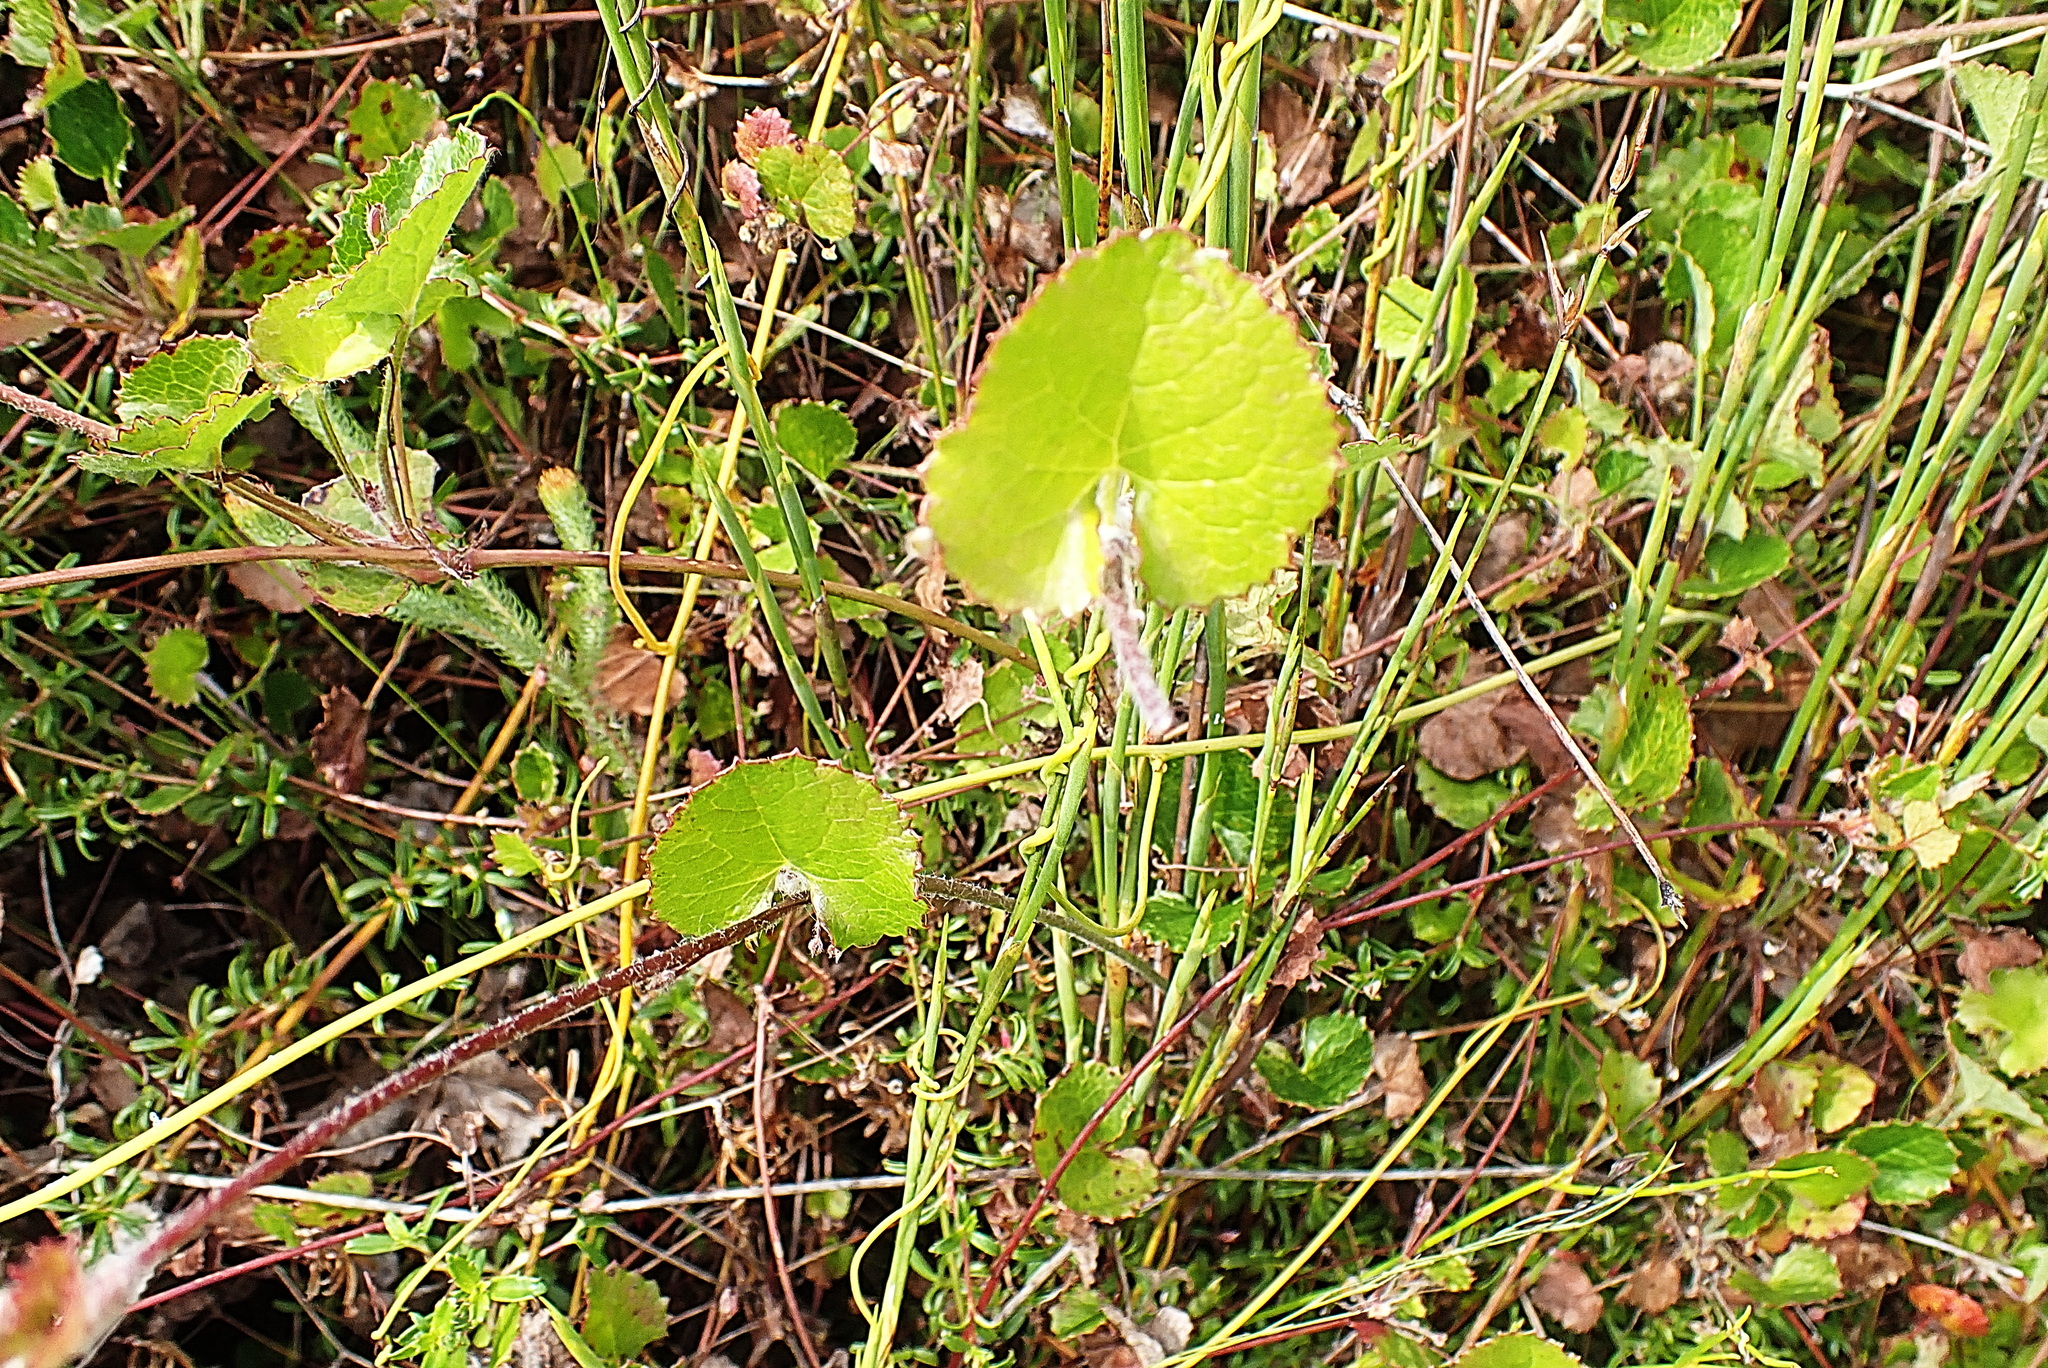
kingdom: Plantae
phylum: Tracheophyta
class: Magnoliopsida
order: Apiales
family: Apiaceae
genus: Centella
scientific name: Centella eriantha
